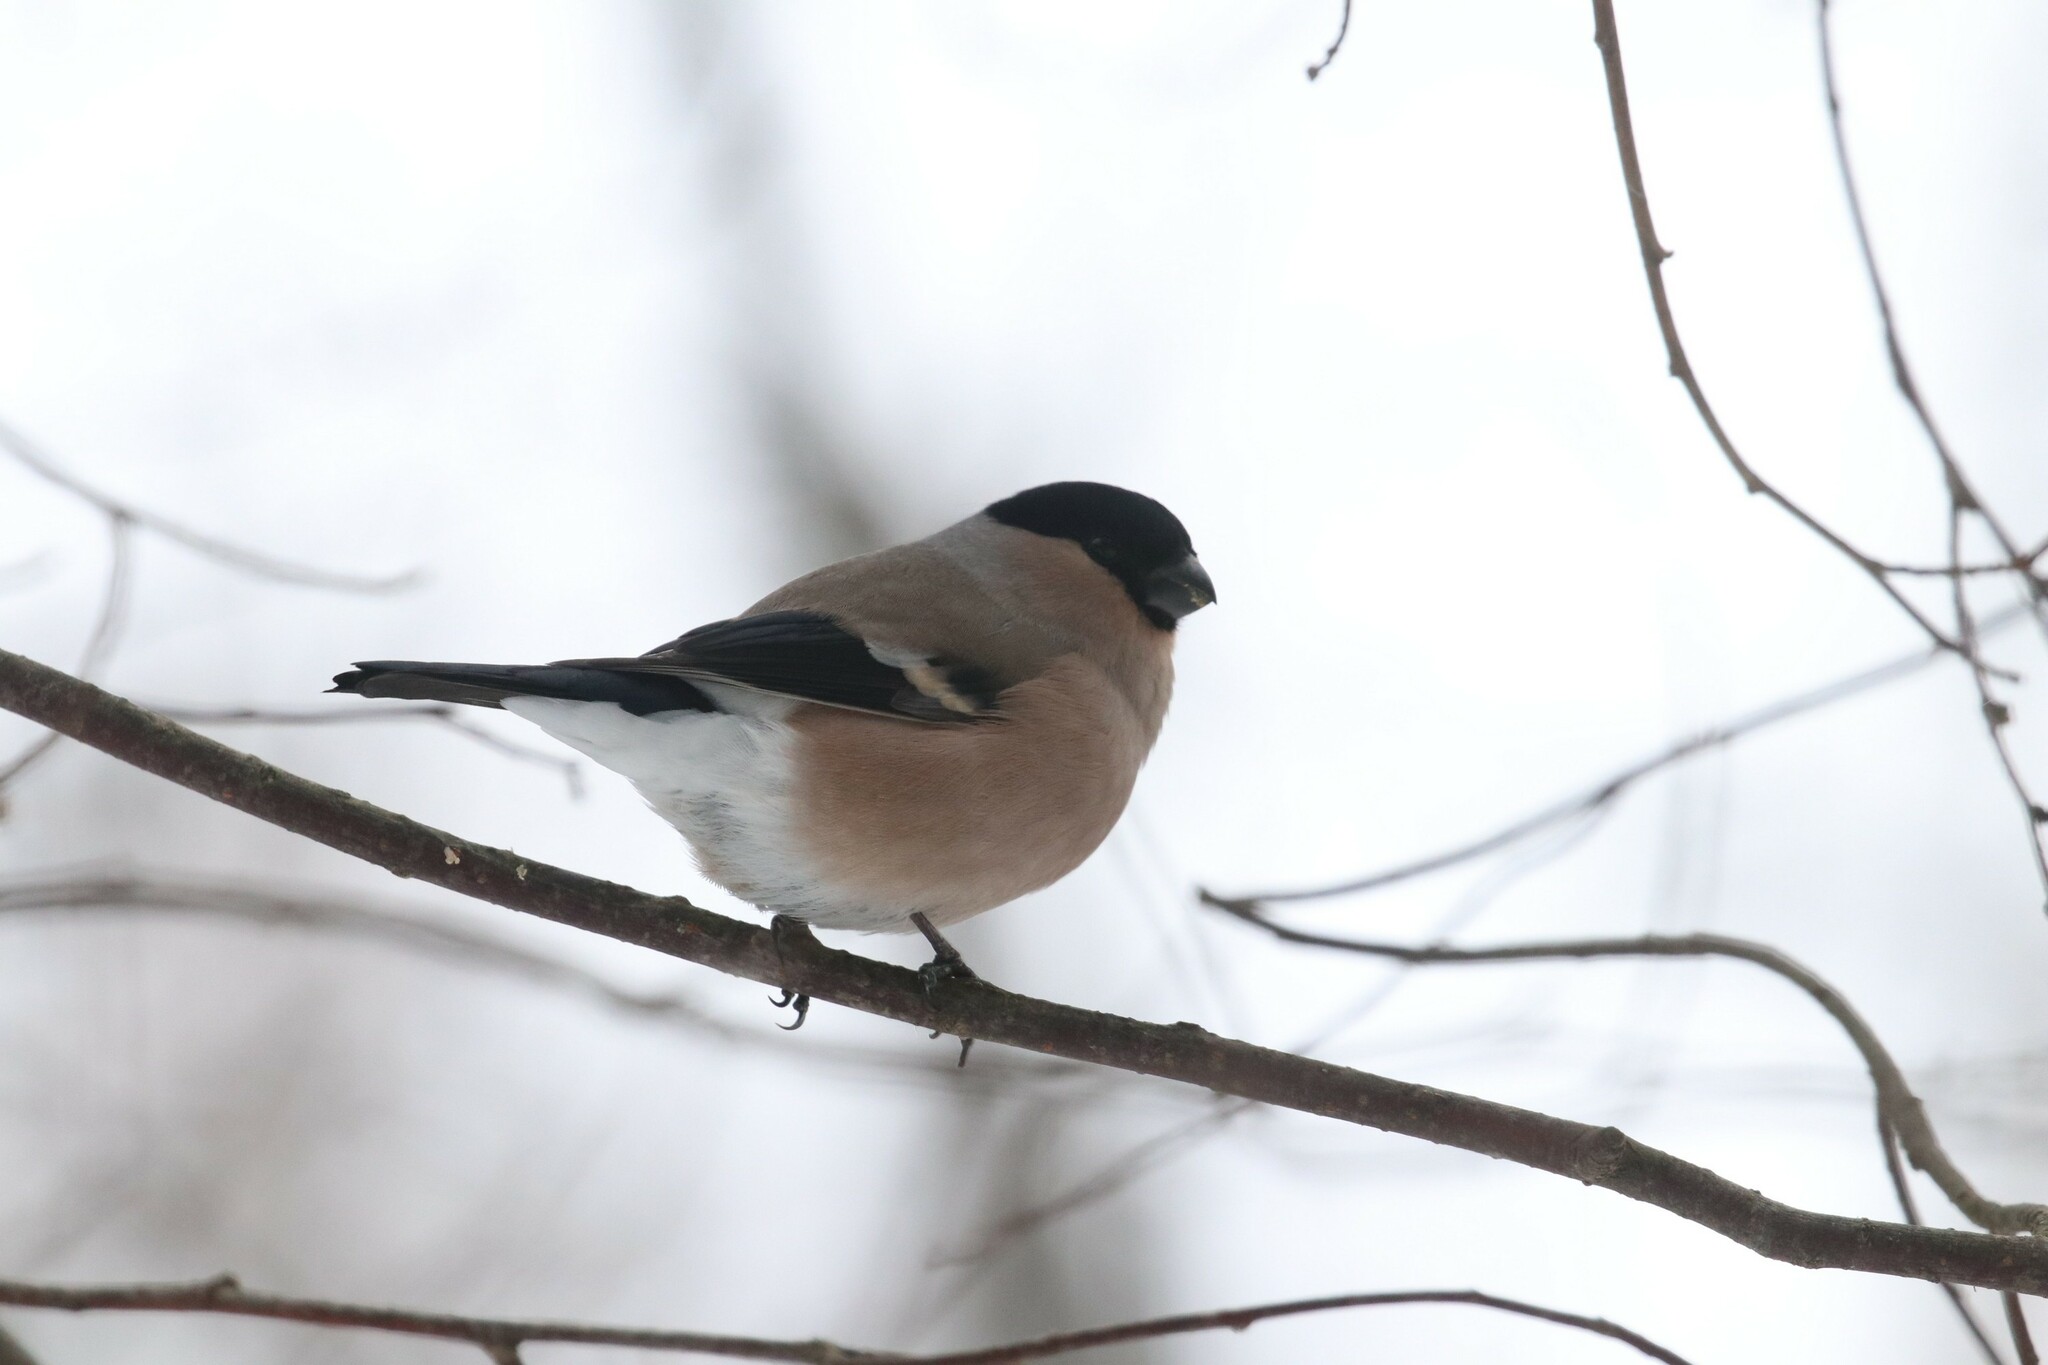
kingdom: Animalia
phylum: Chordata
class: Aves
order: Passeriformes
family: Fringillidae
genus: Pyrrhula
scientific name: Pyrrhula pyrrhula
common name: Eurasian bullfinch
